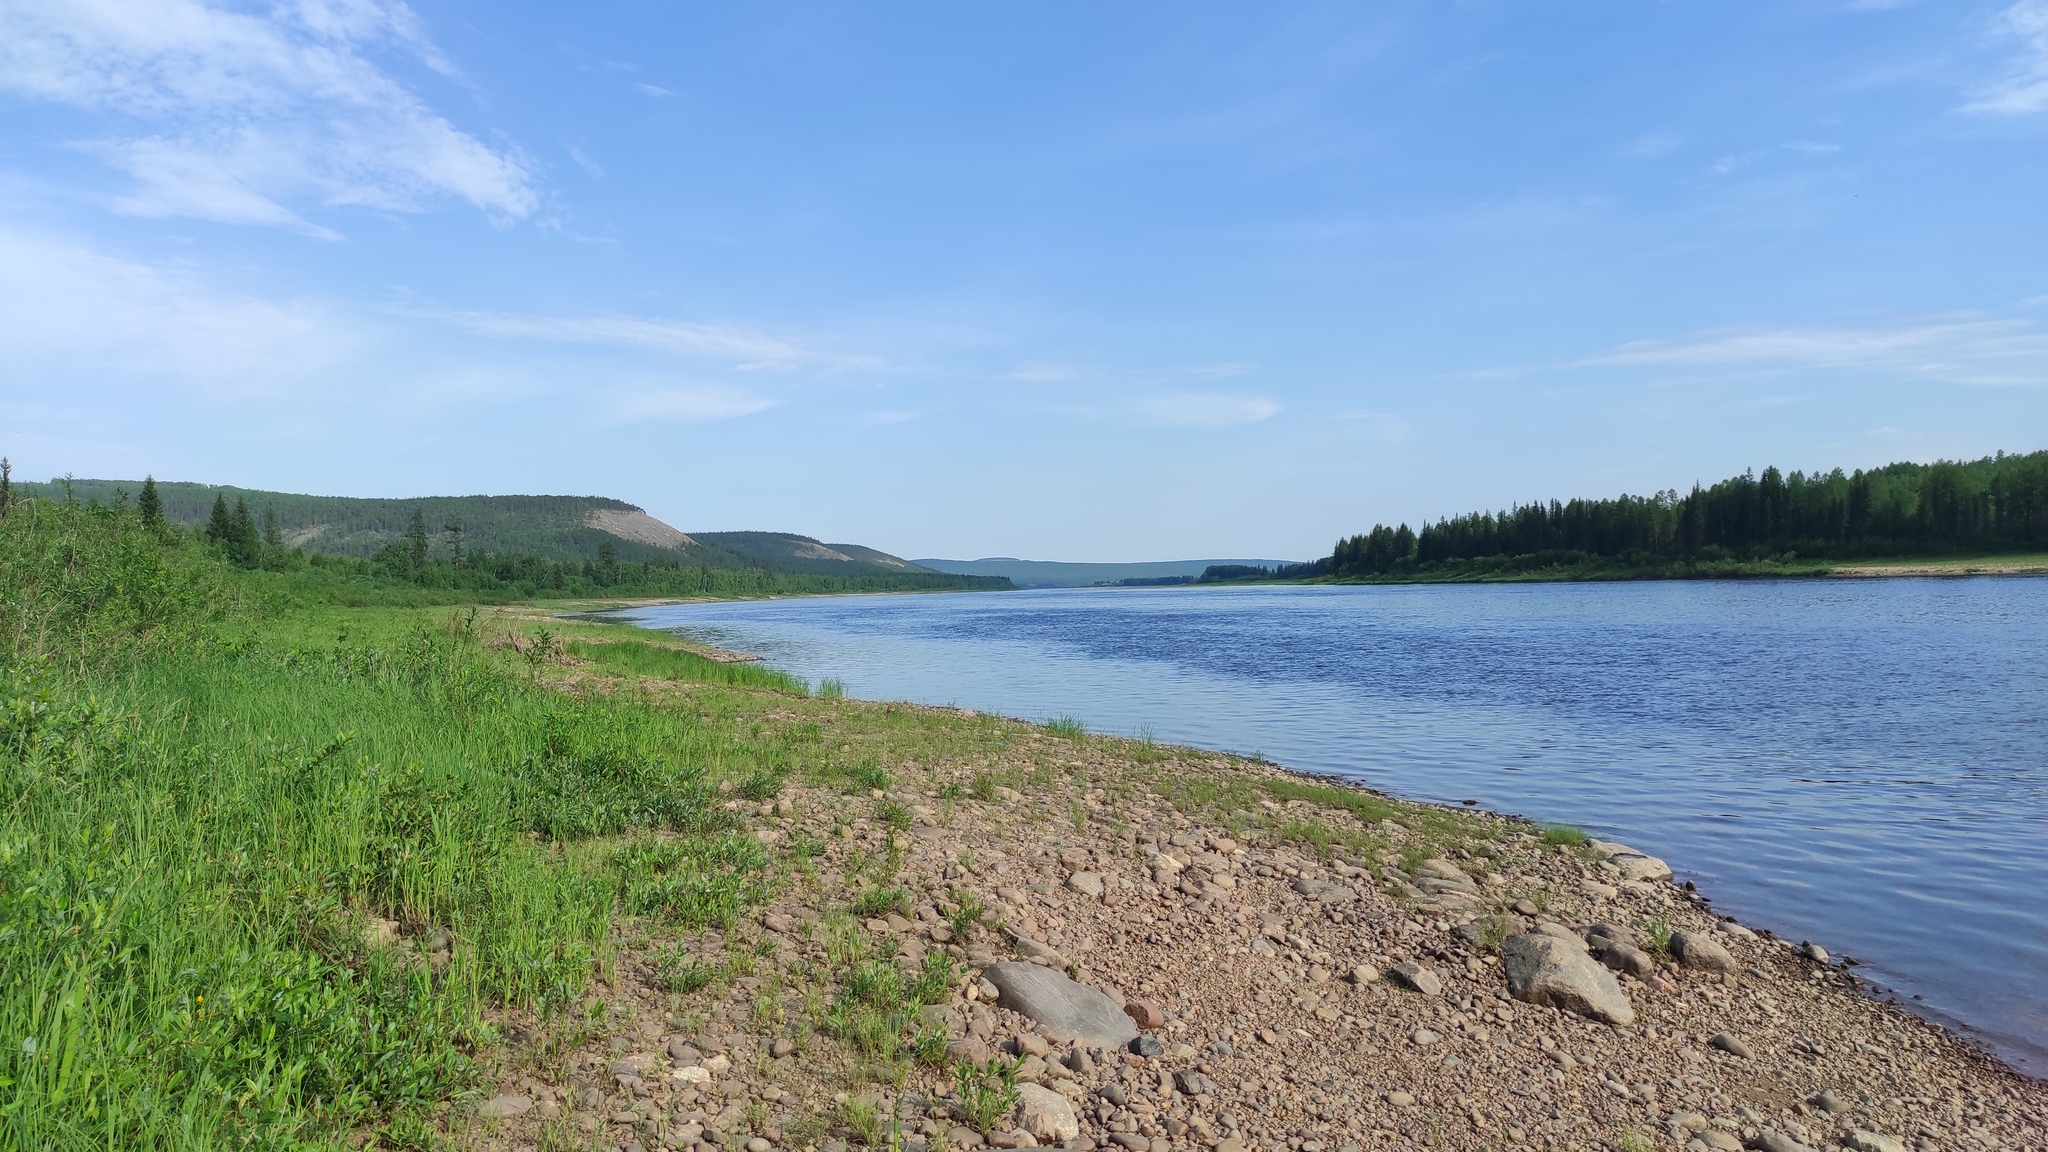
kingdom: Plantae
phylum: Tracheophyta
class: Pinopsida
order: Pinales
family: Pinaceae
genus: Larix
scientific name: Larix gmelinii
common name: Dahurian larch
